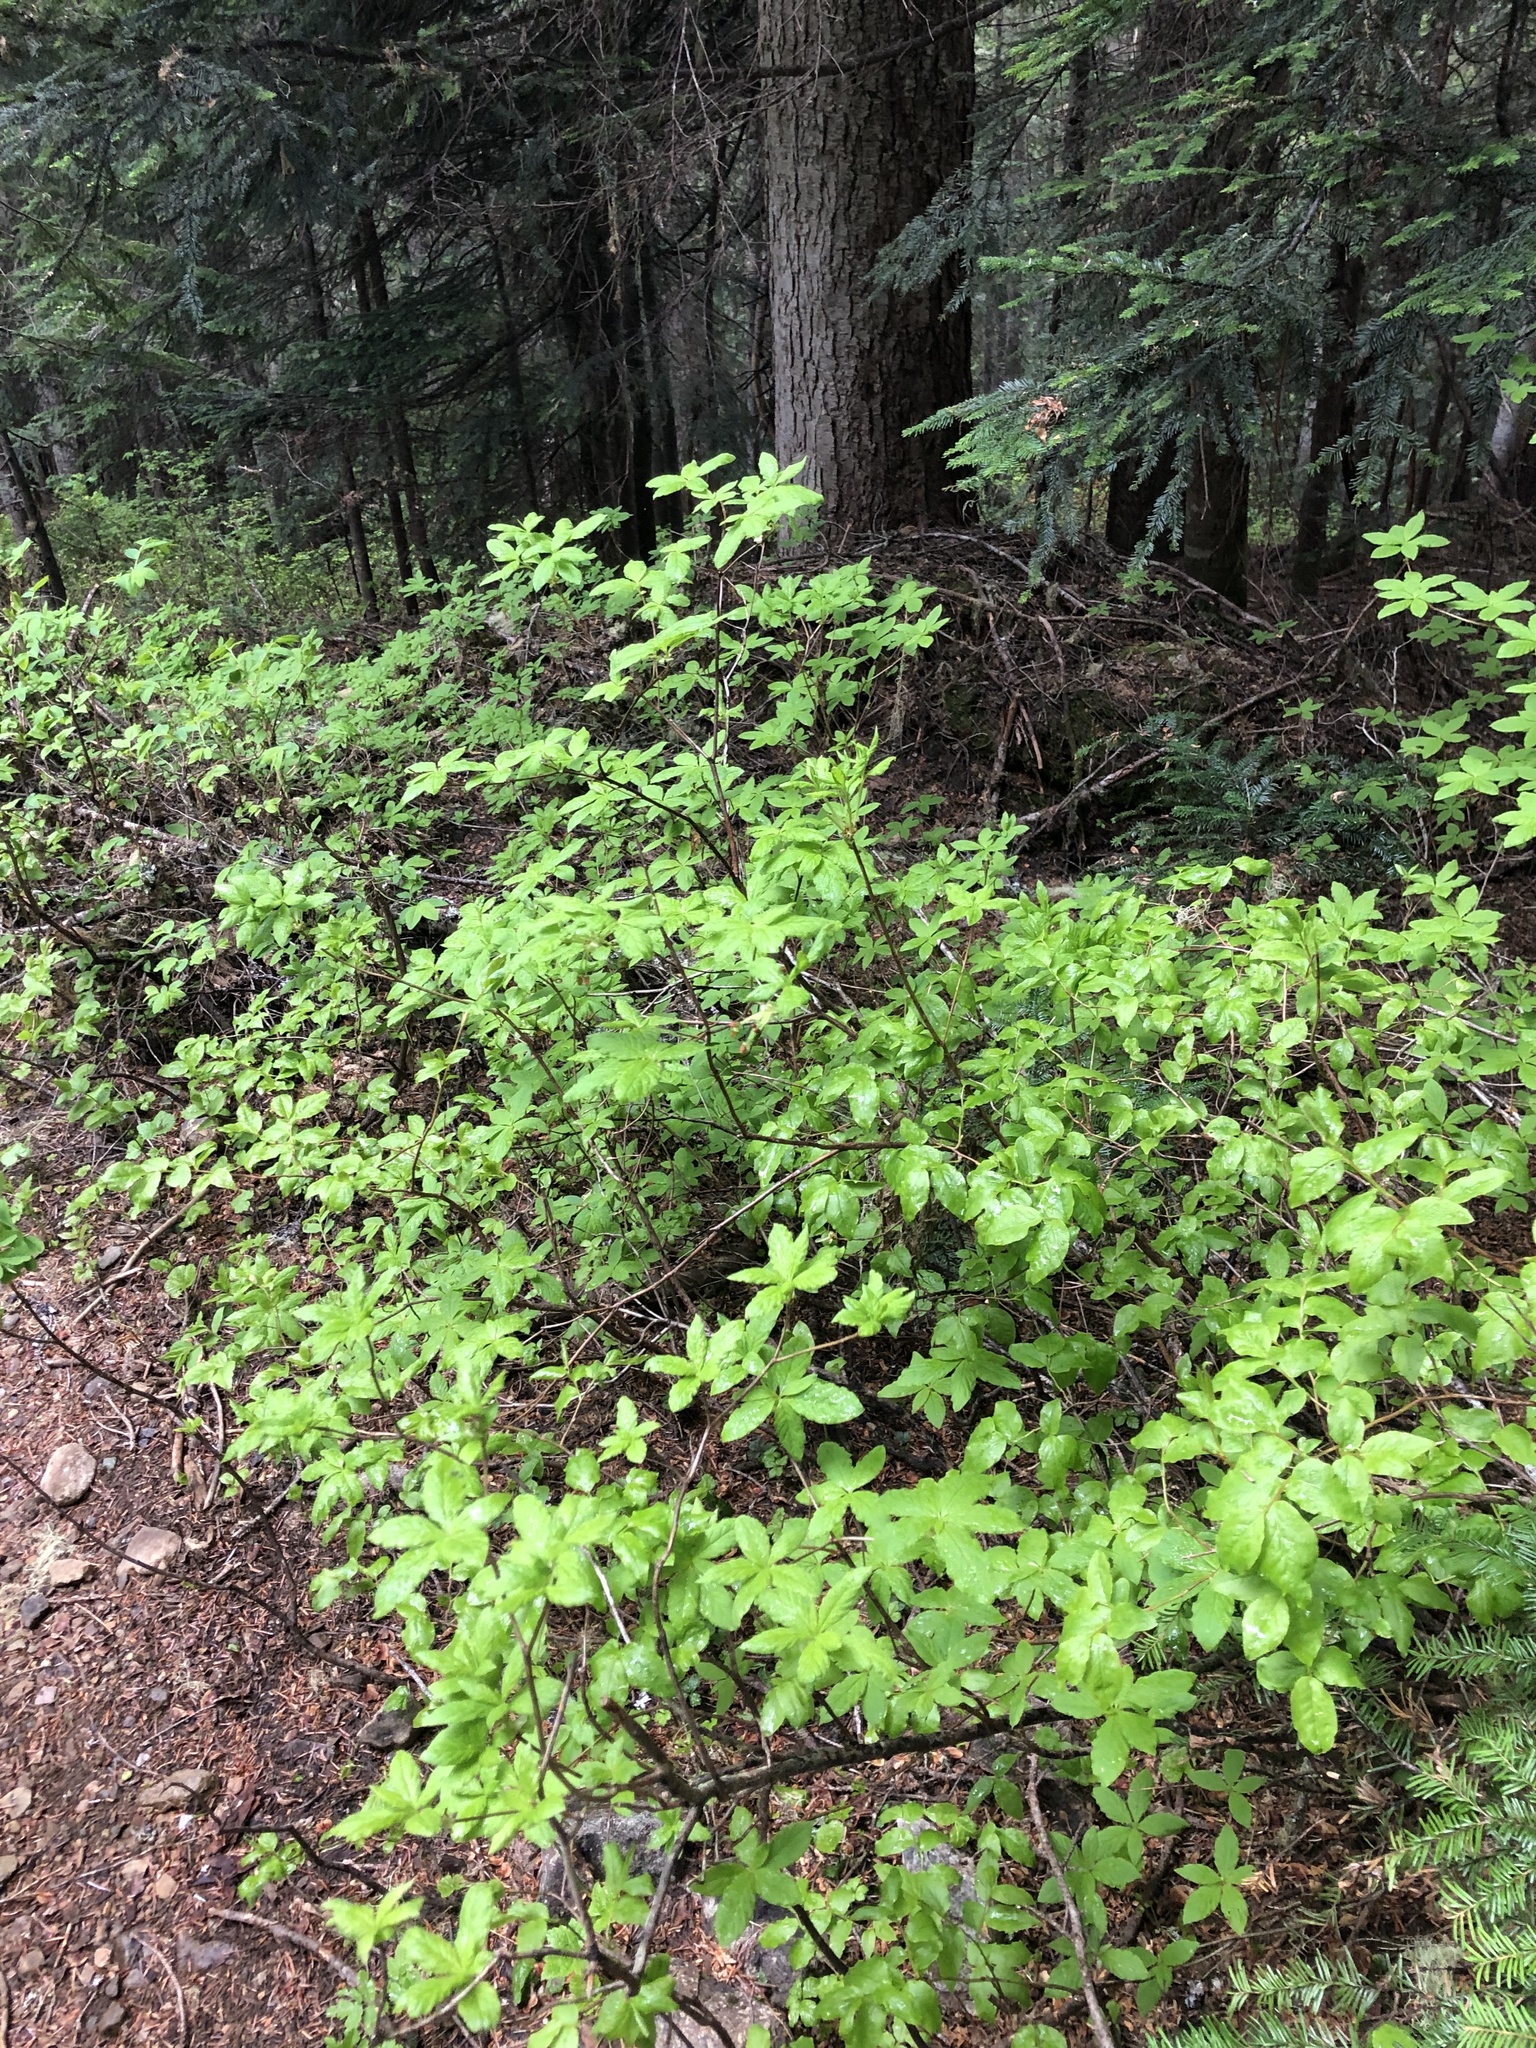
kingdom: Plantae
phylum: Tracheophyta
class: Magnoliopsida
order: Ericales
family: Ericaceae
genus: Rhododendron
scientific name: Rhododendron menziesii
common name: Pacific menziesia
